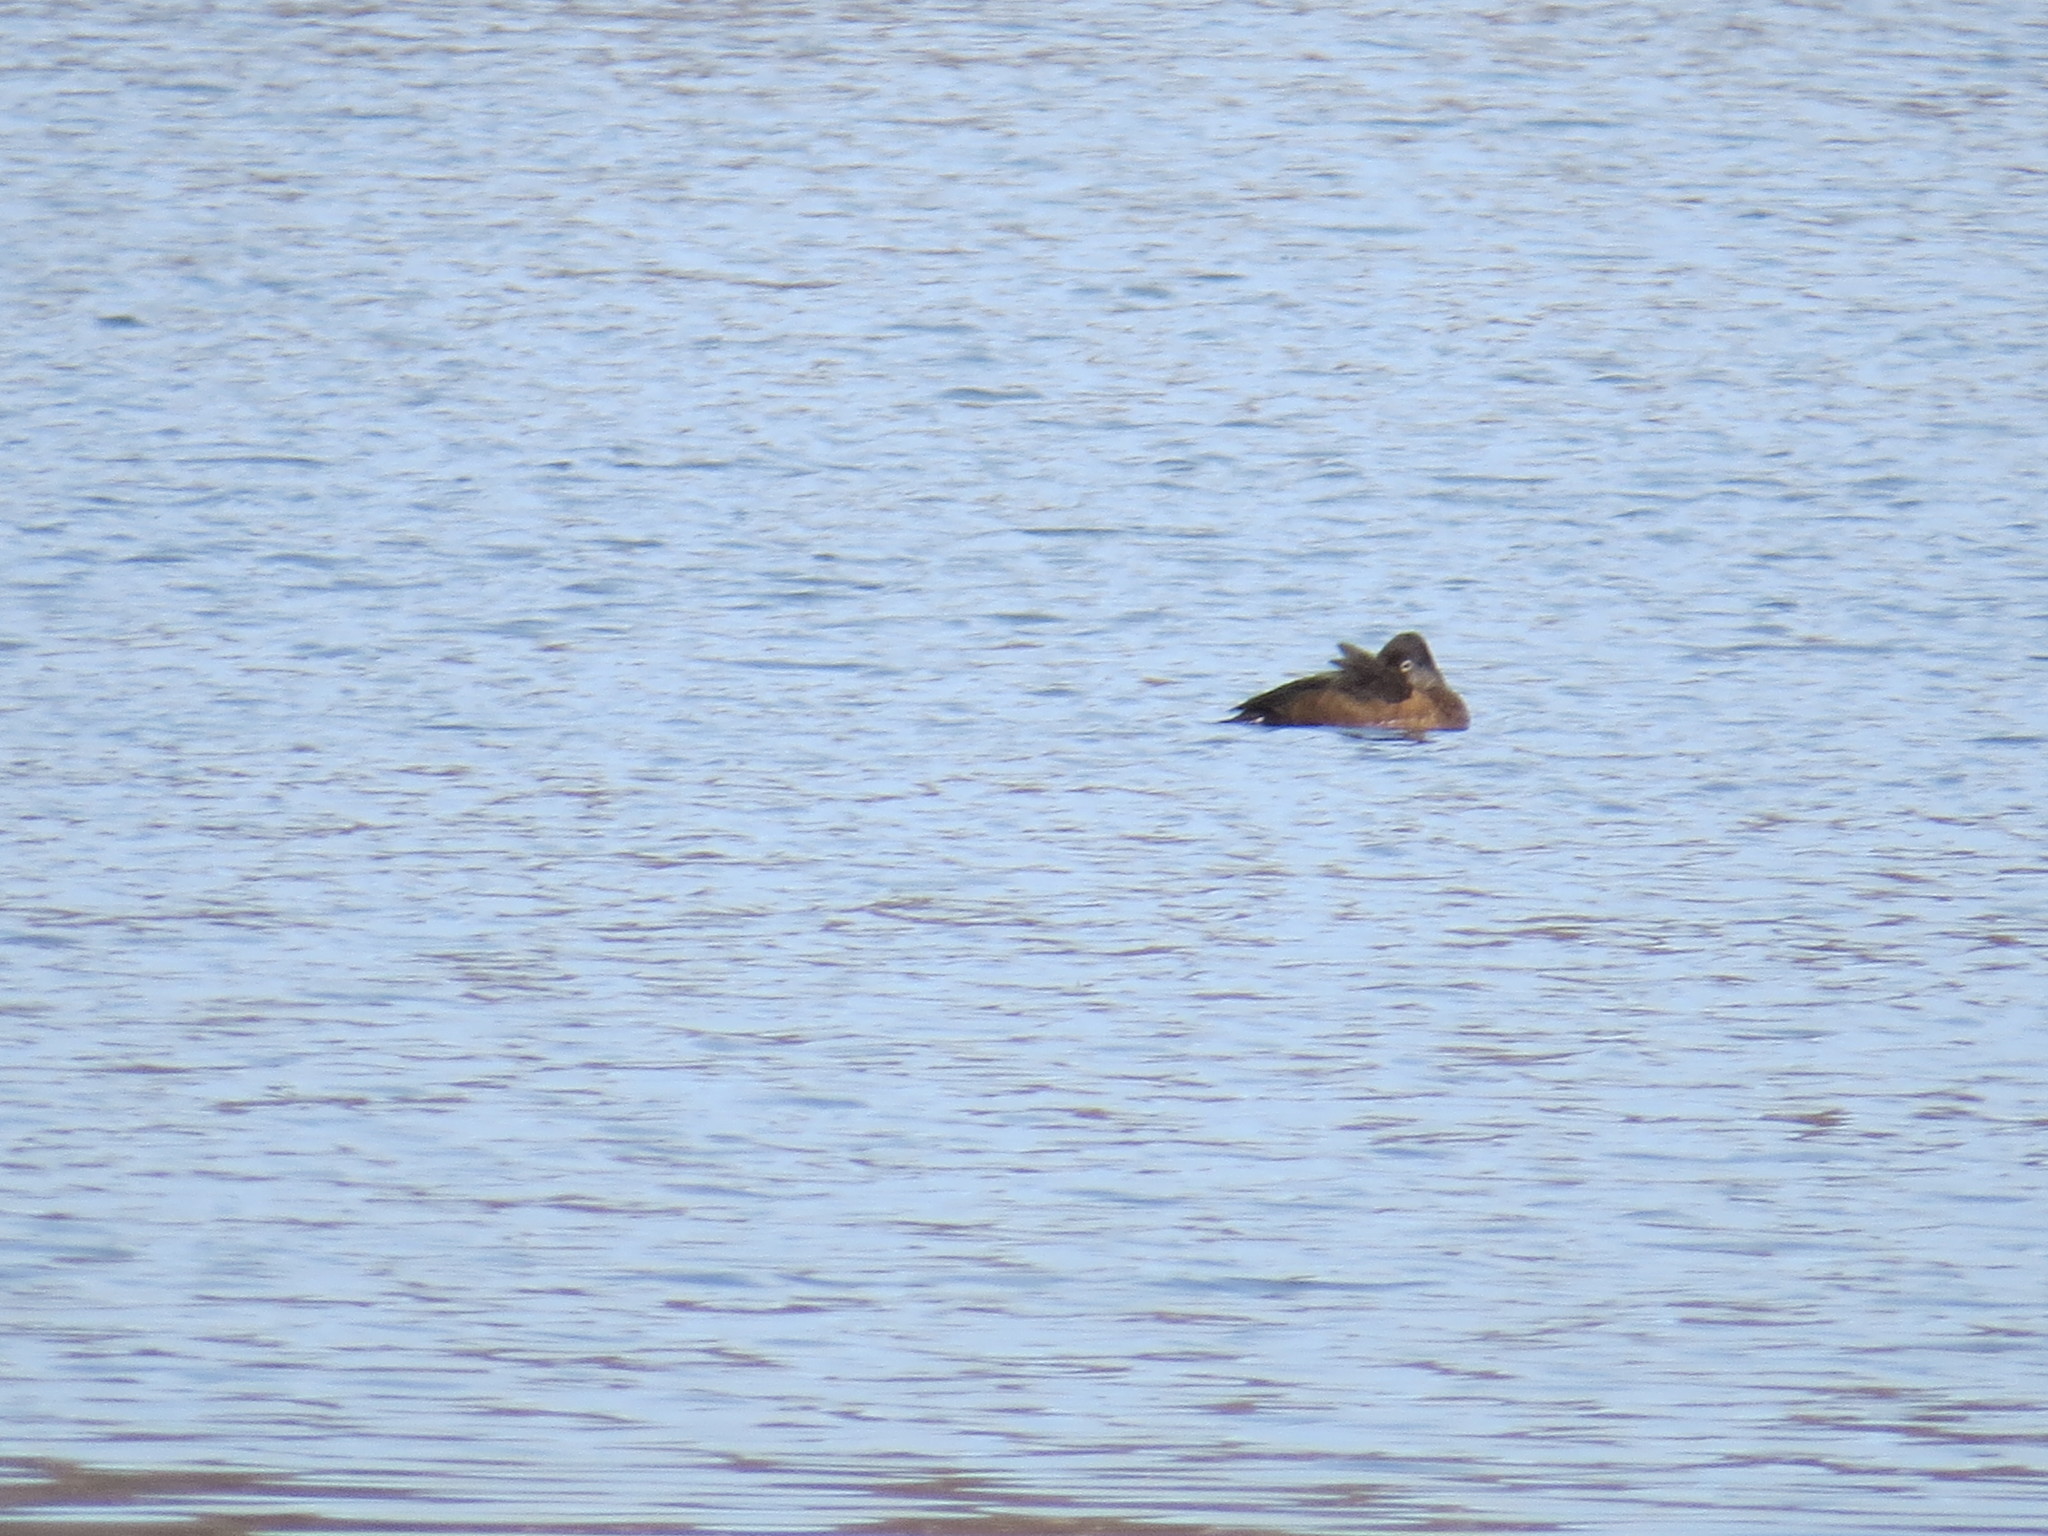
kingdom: Animalia
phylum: Chordata
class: Aves
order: Anseriformes
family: Anatidae
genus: Aythya
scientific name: Aythya collaris
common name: Ring-necked duck
